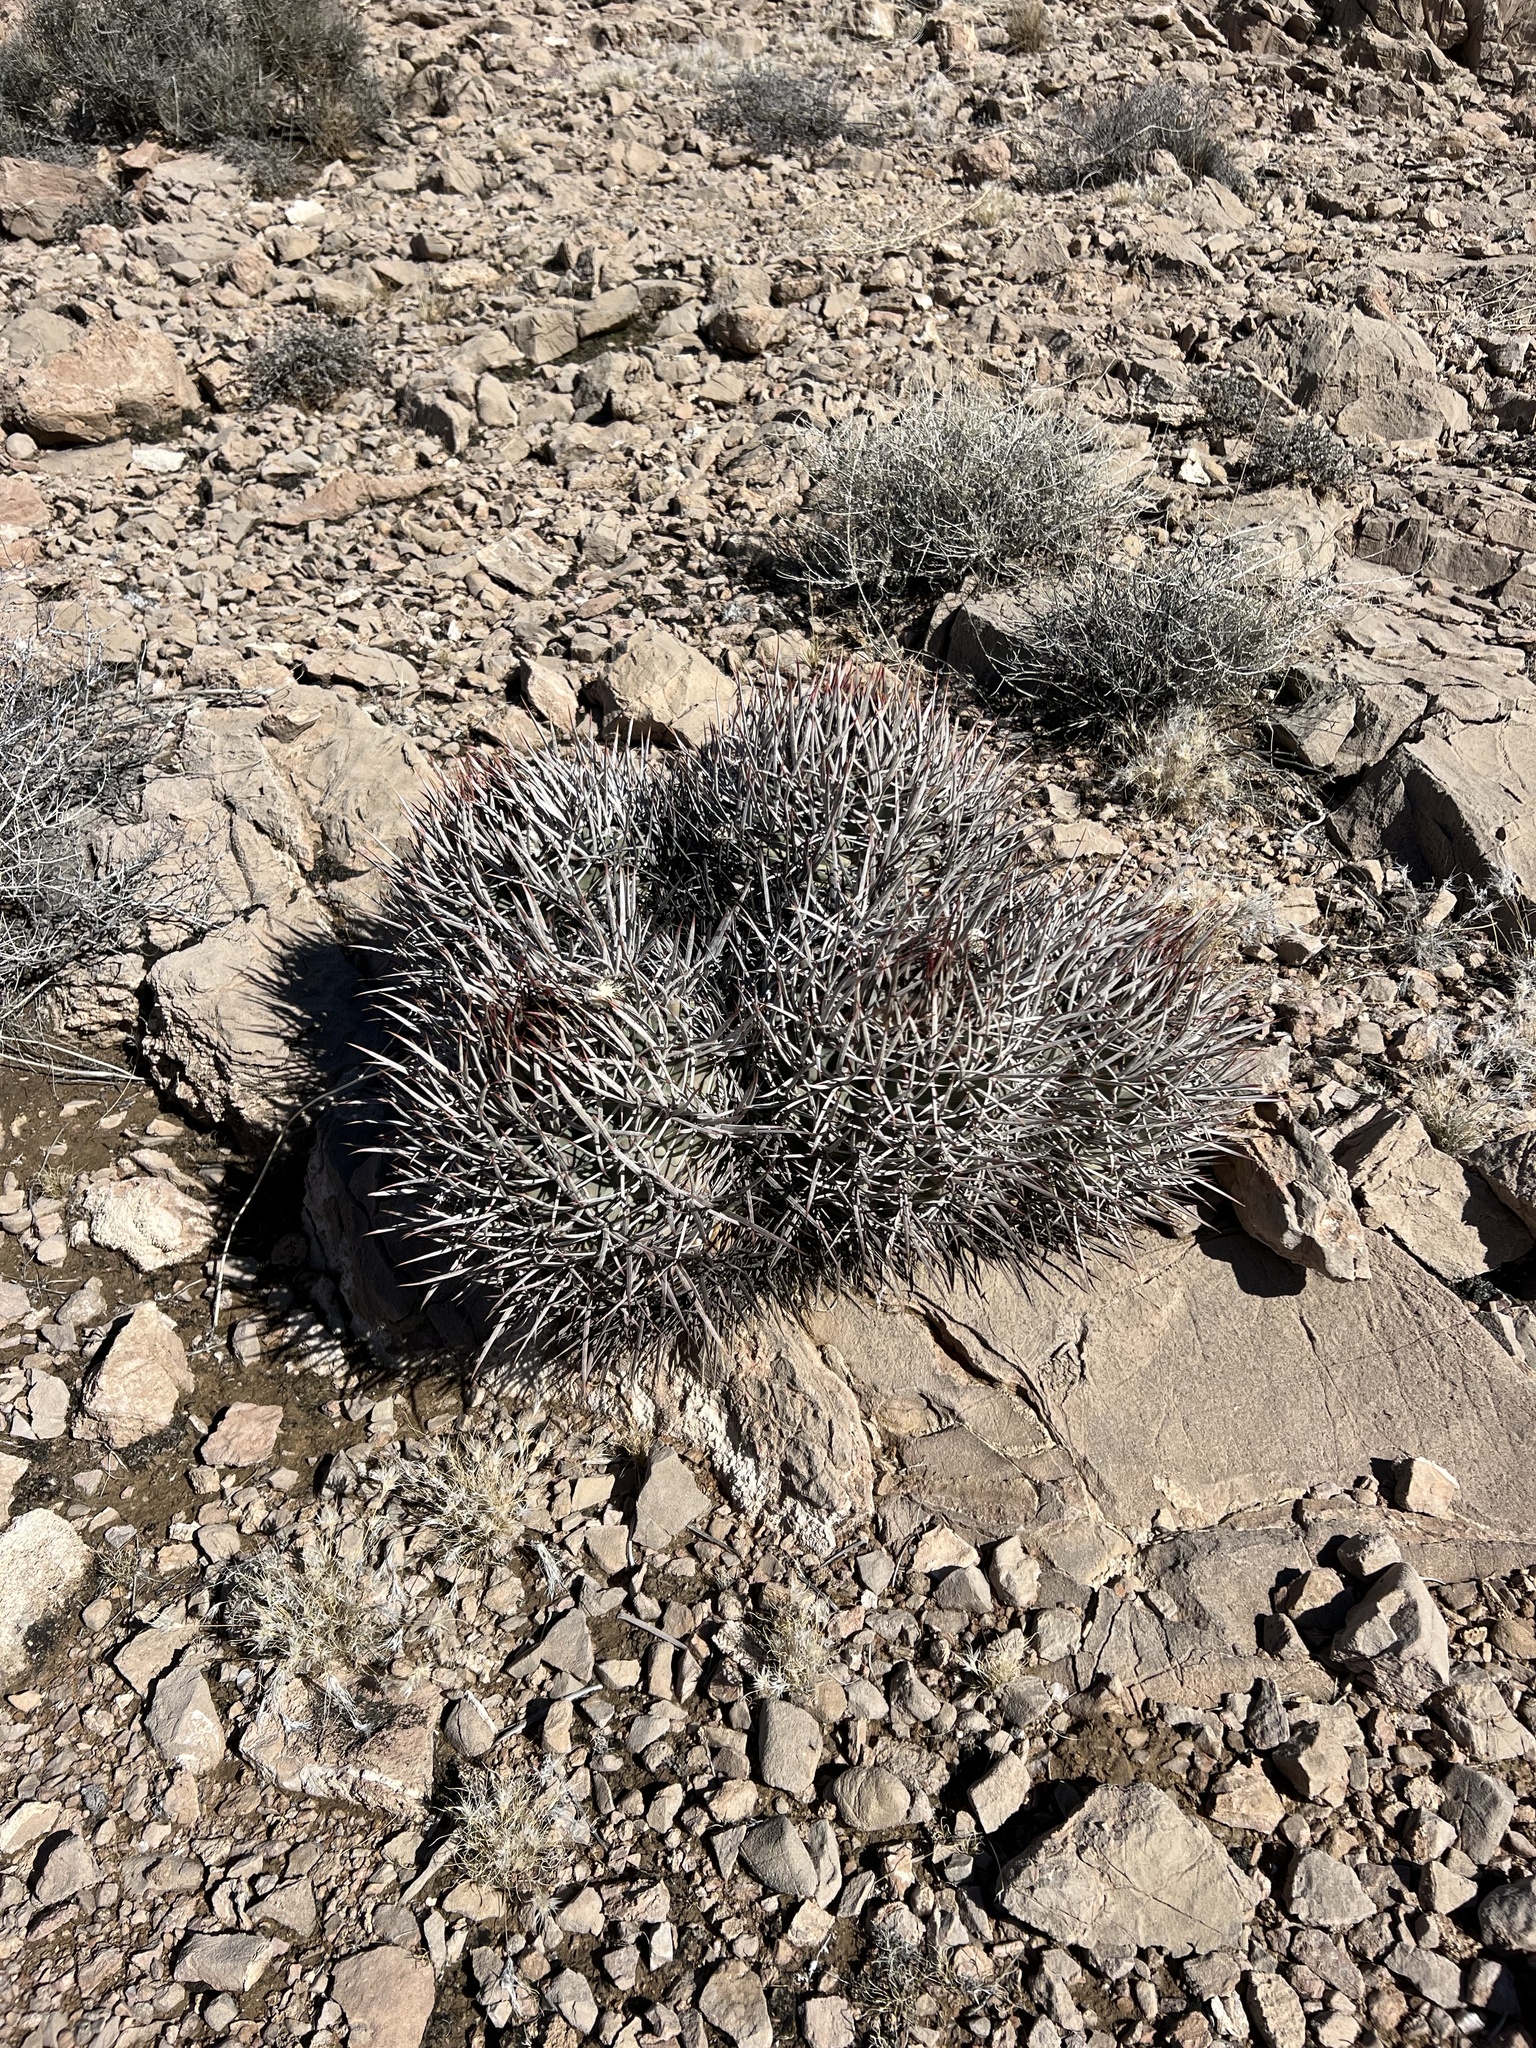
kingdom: Plantae
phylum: Tracheophyta
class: Magnoliopsida
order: Caryophyllales
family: Cactaceae
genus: Echinocactus
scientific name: Echinocactus polycephalus
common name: Cottontop cactus
